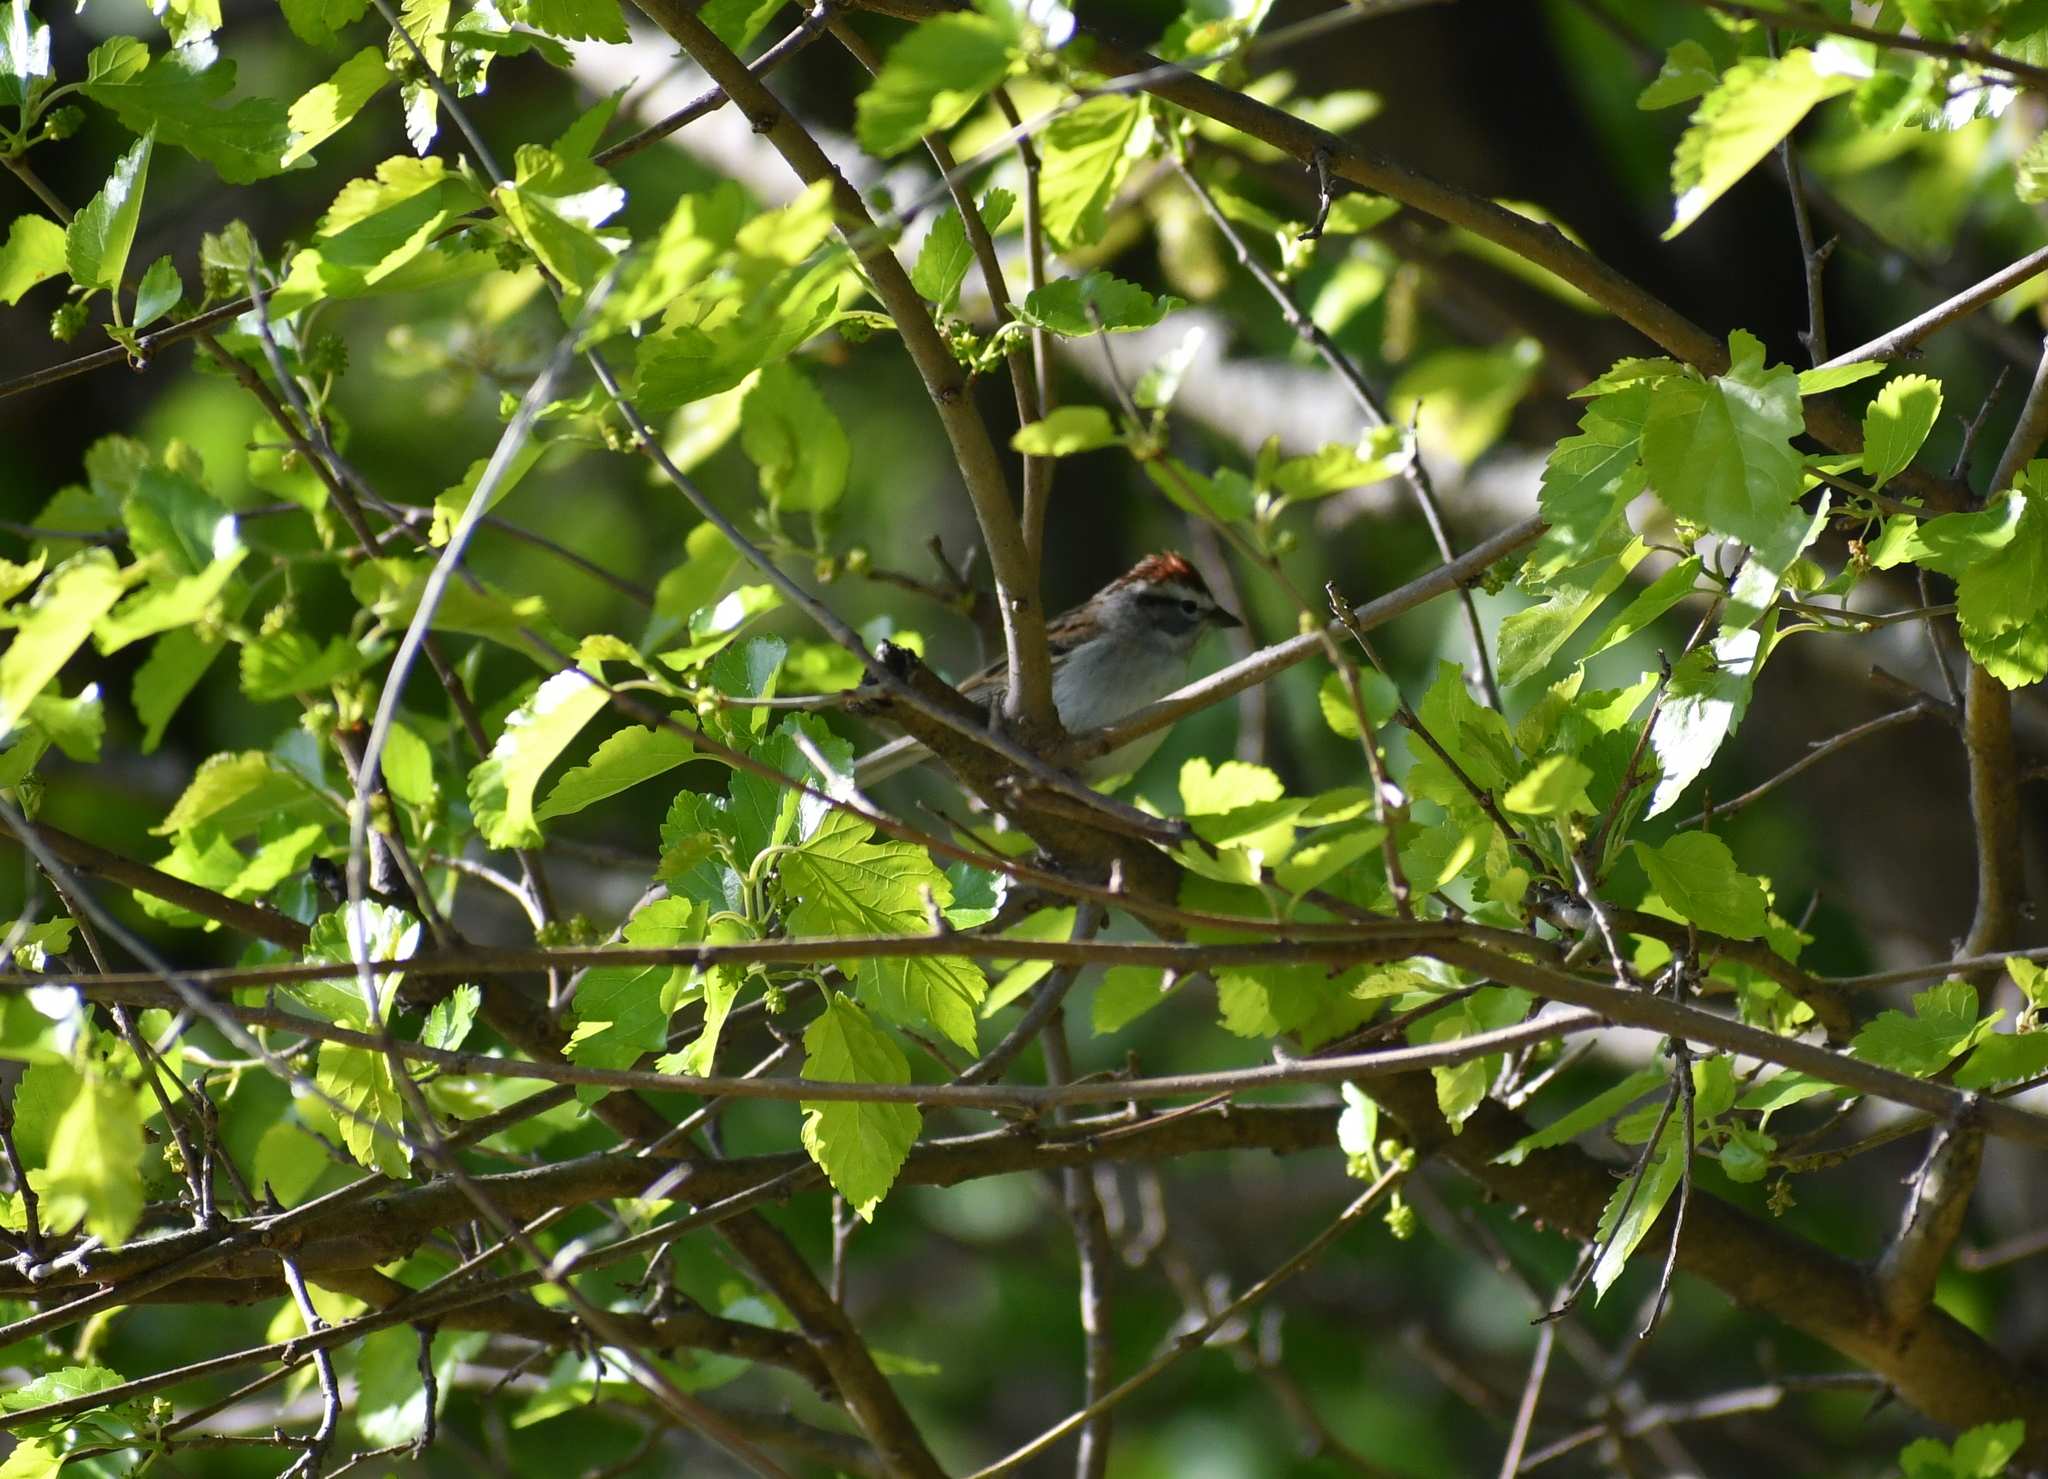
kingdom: Animalia
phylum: Chordata
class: Aves
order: Passeriformes
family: Passerellidae
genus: Spizella
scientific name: Spizella passerina
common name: Chipping sparrow
